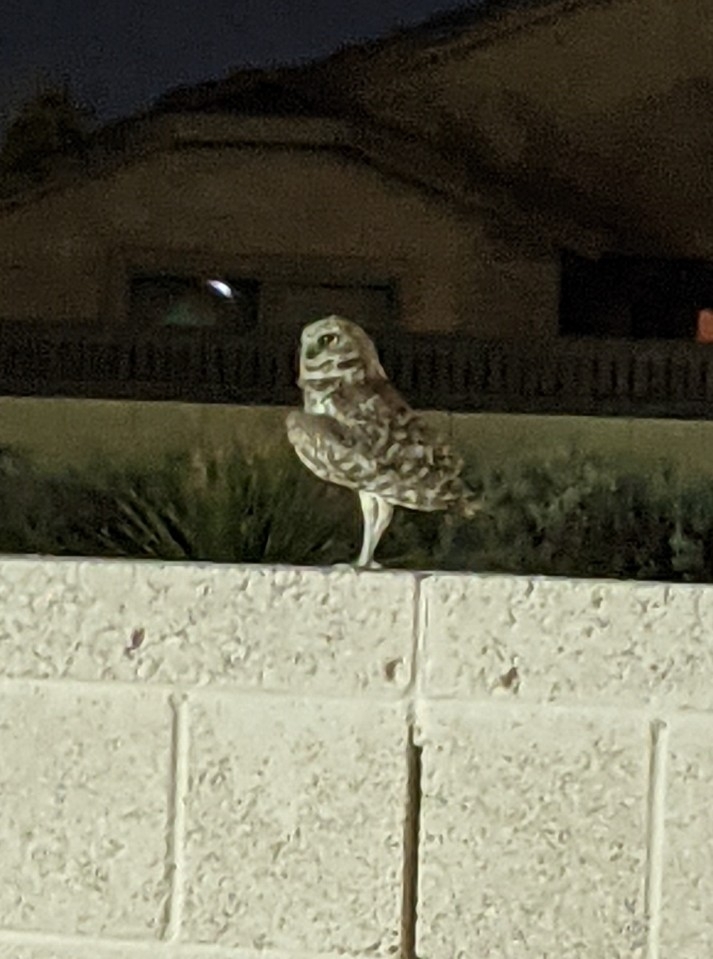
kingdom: Animalia
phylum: Chordata
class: Aves
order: Strigiformes
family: Strigidae
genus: Athene
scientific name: Athene cunicularia
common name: Burrowing owl
